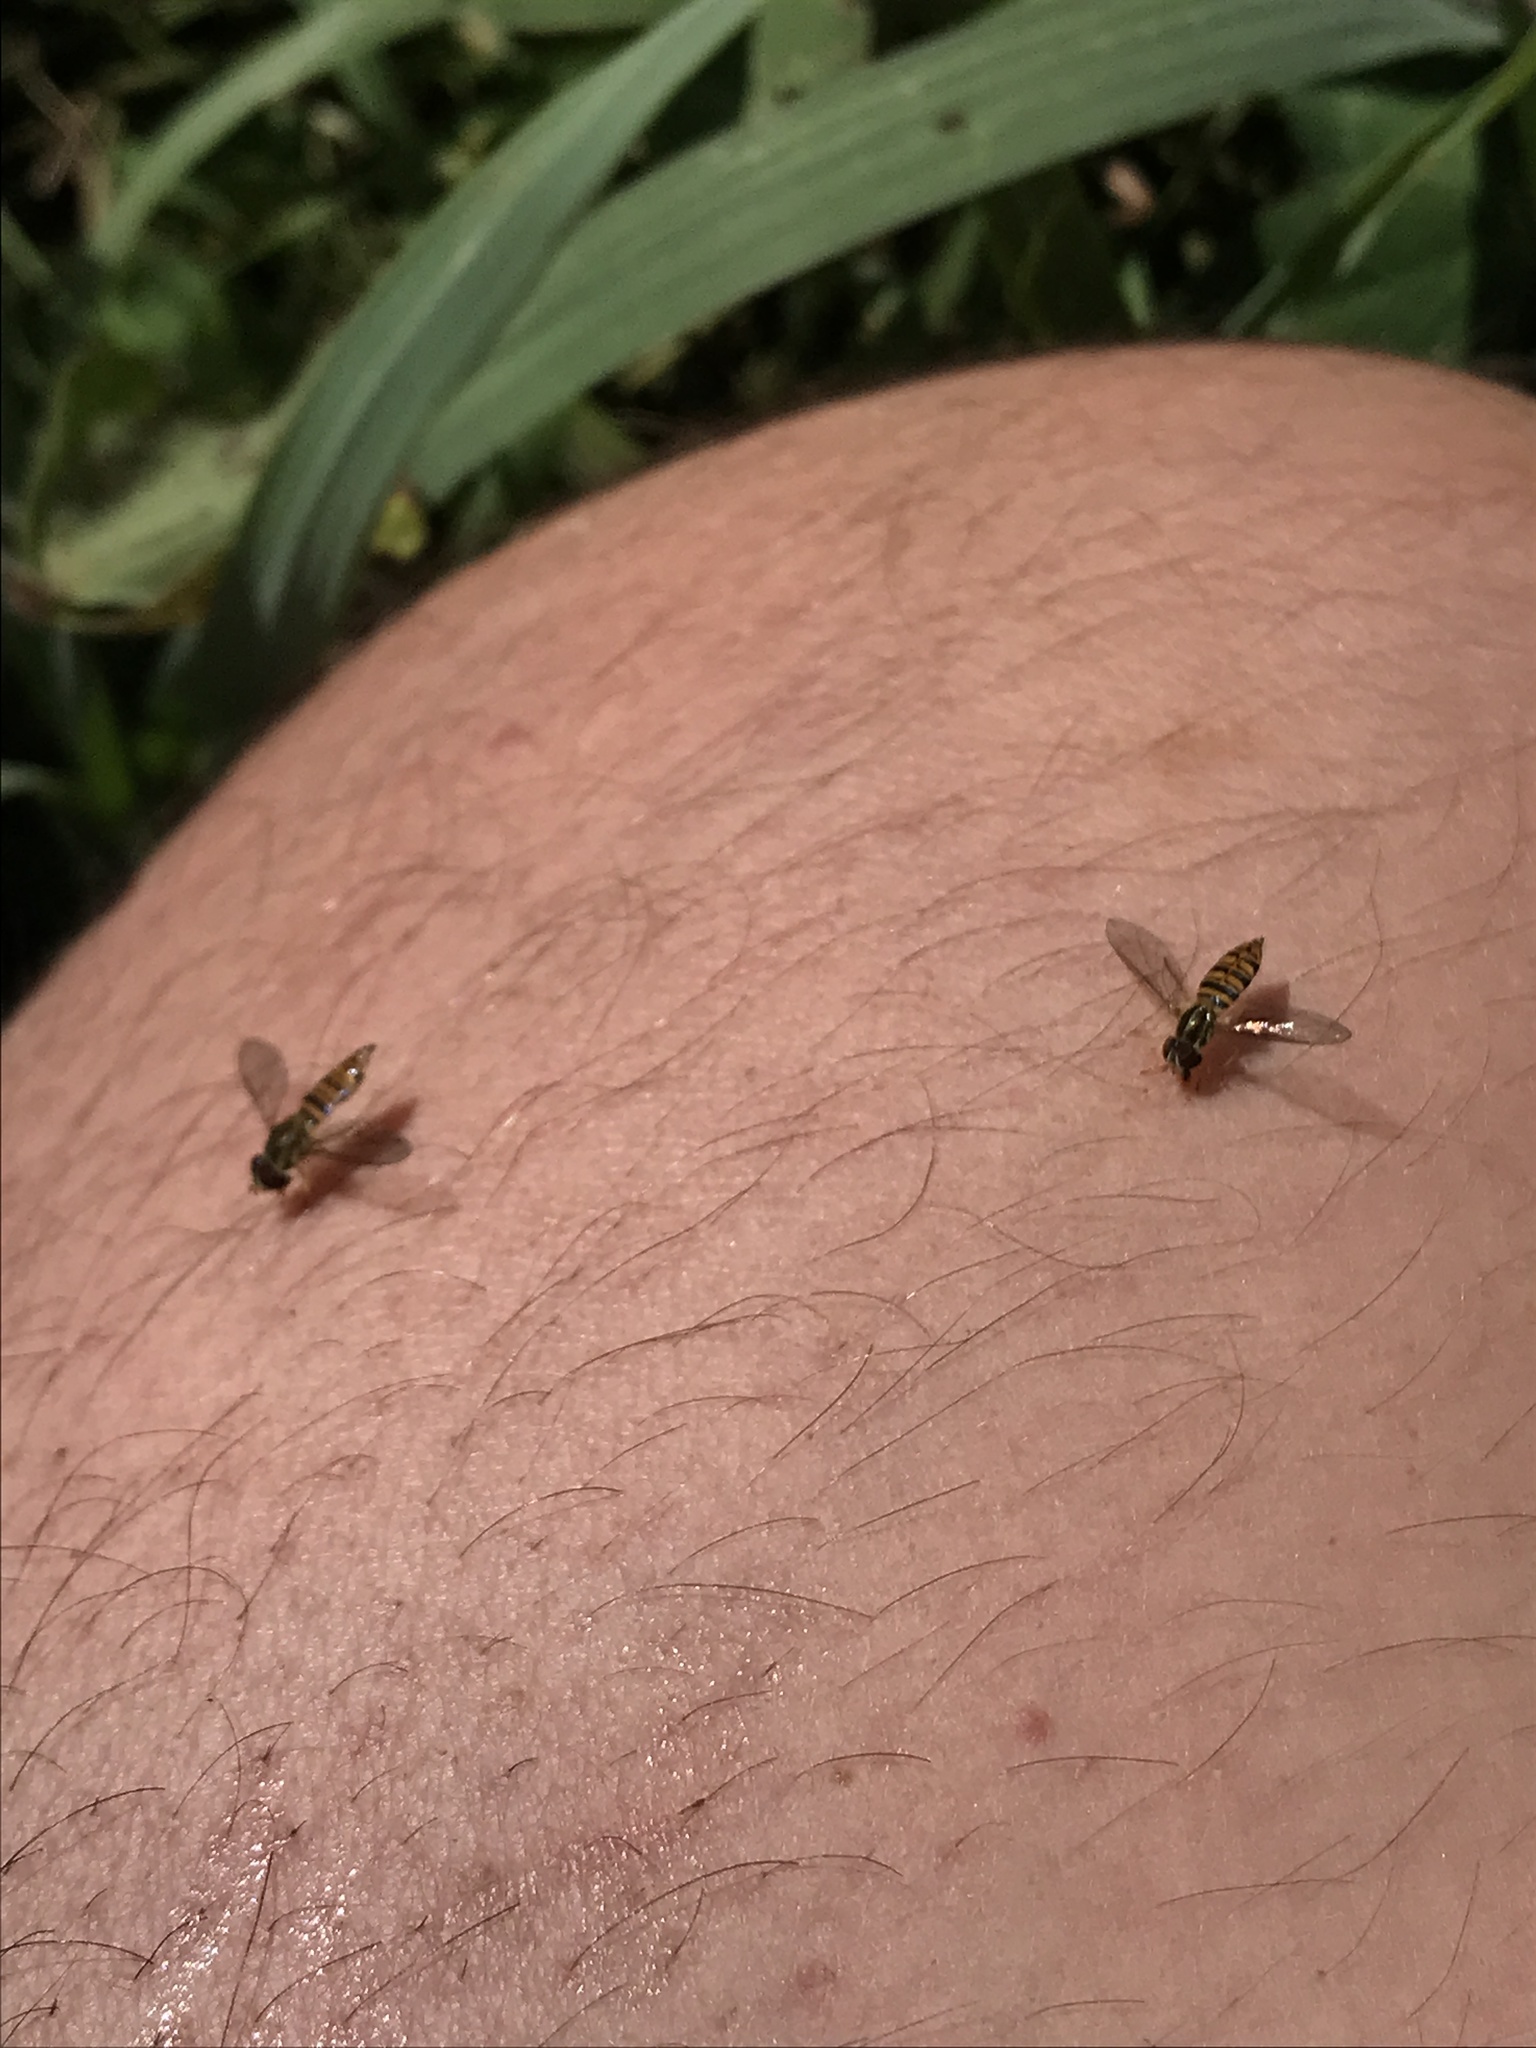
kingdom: Animalia
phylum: Arthropoda
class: Insecta
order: Diptera
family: Syrphidae
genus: Toxomerus
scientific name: Toxomerus politus
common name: Maize calligrapher
